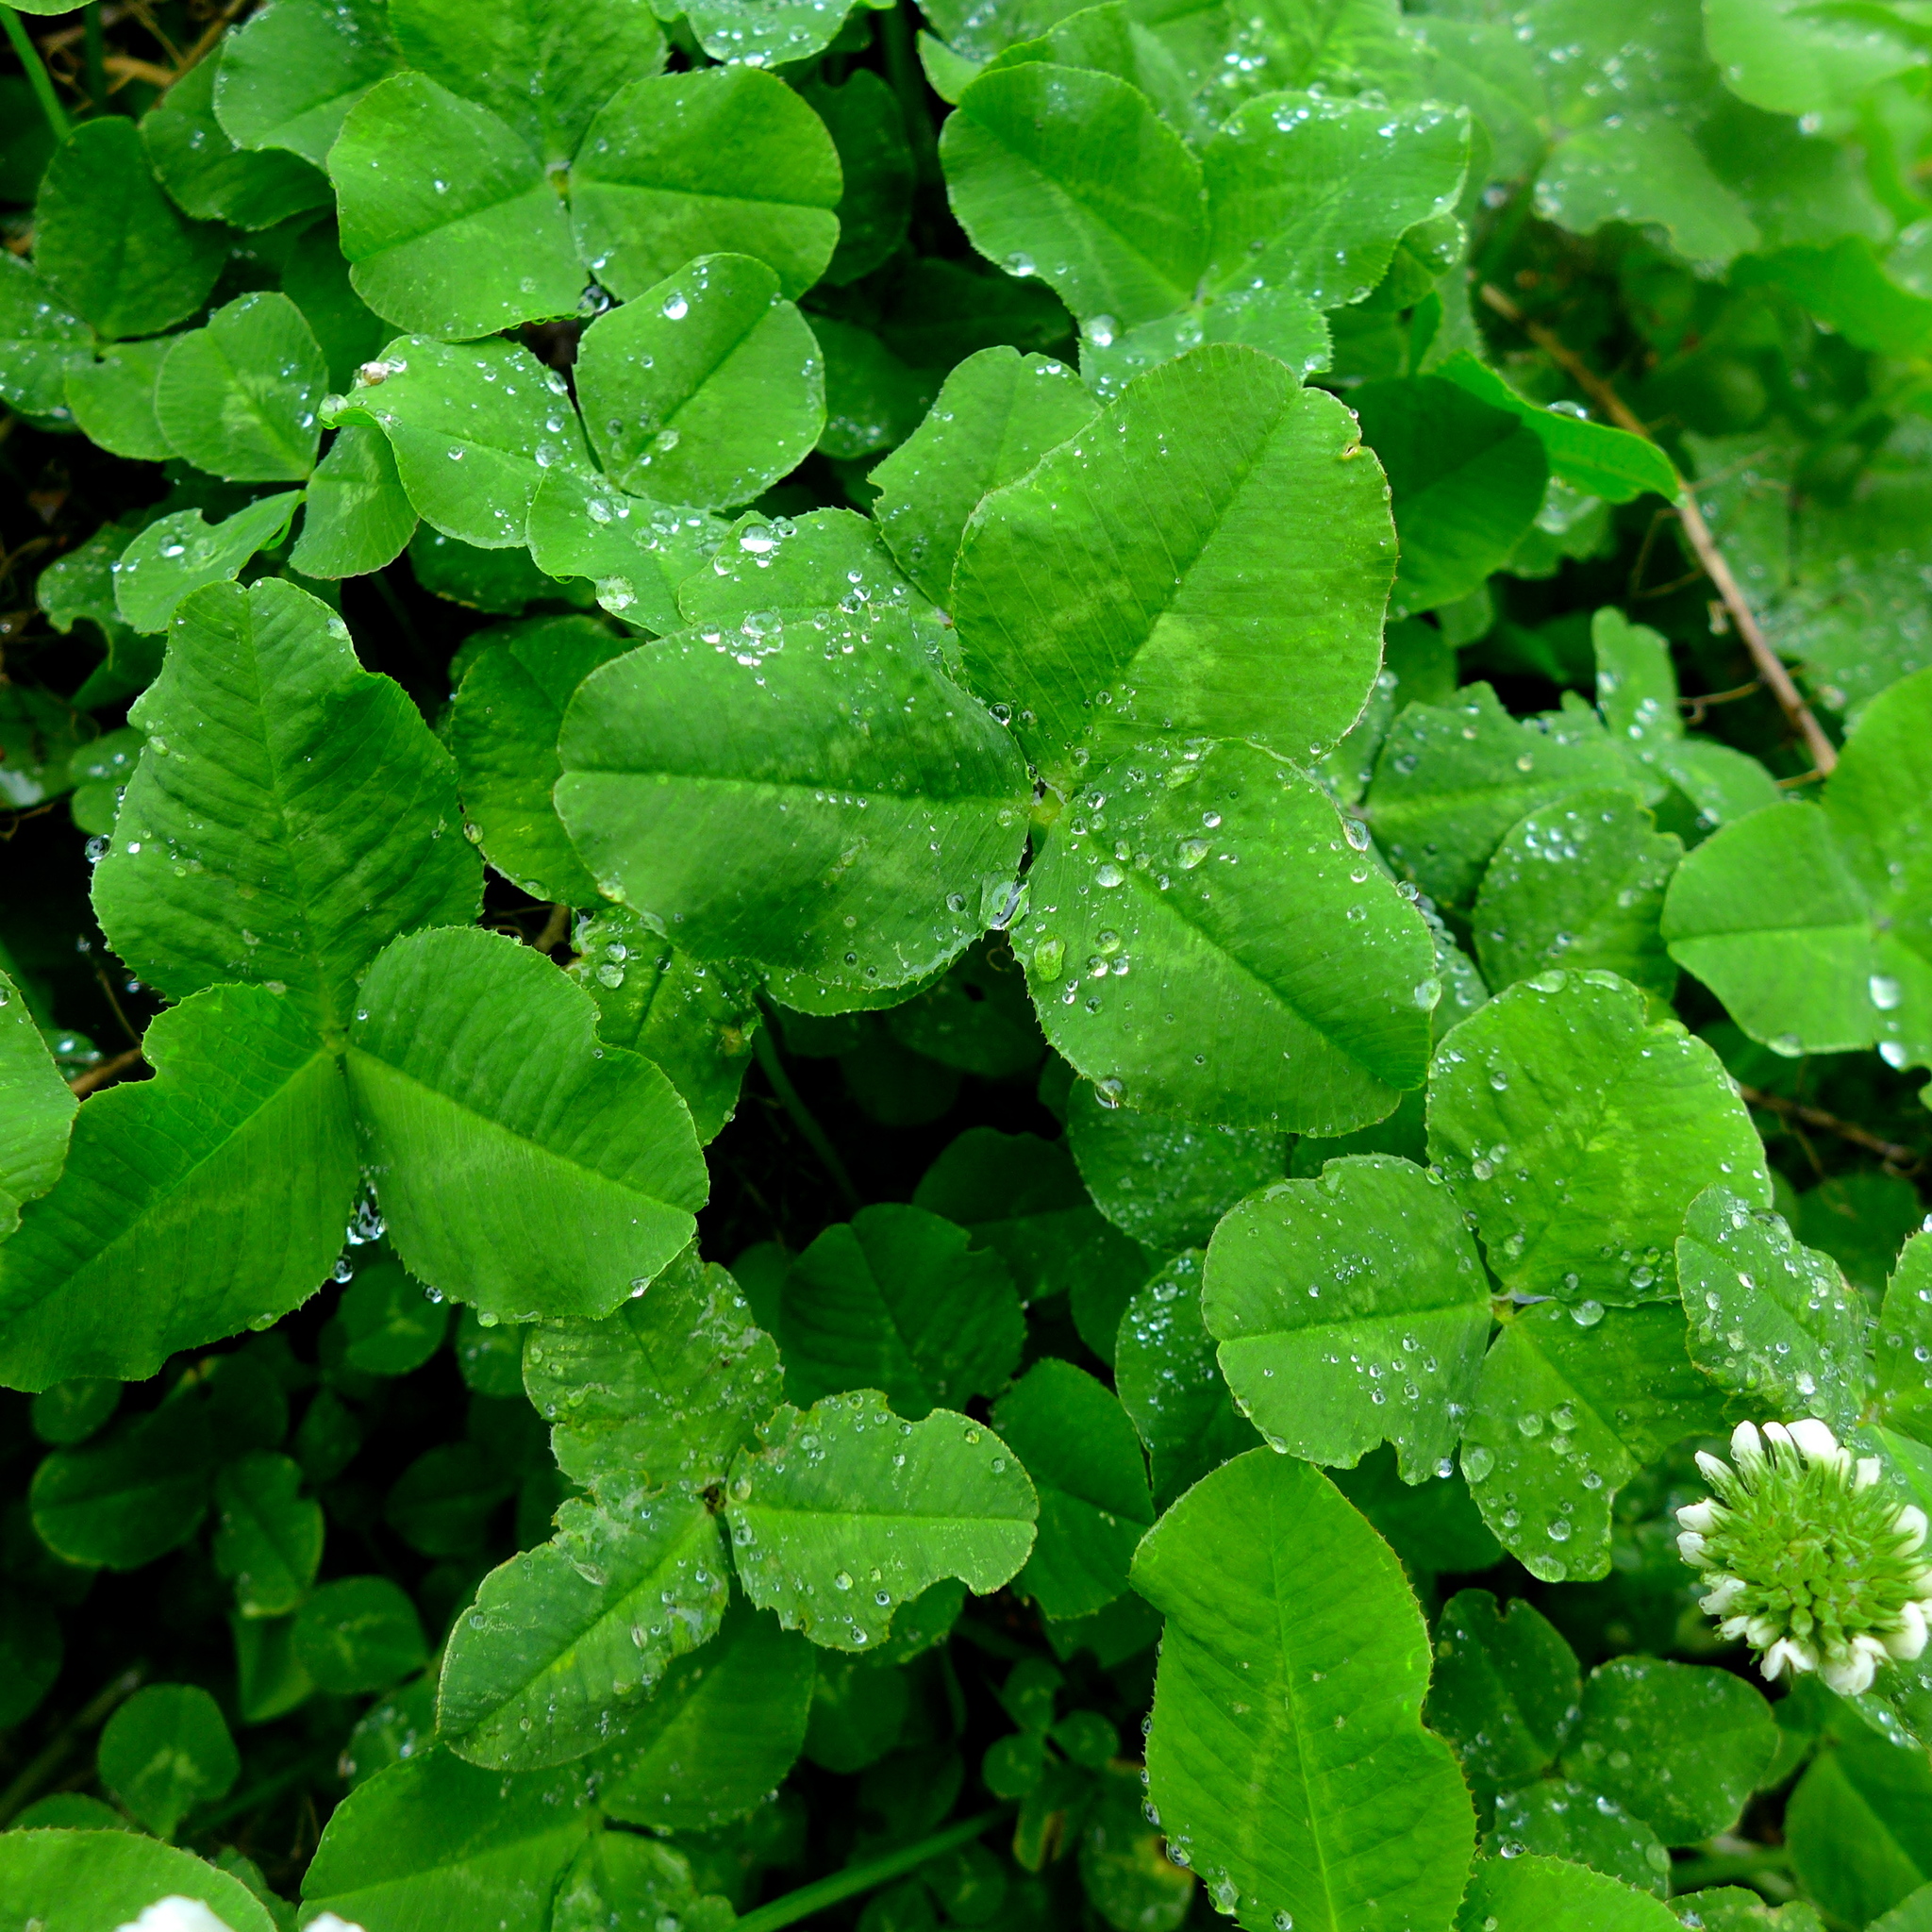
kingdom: Plantae
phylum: Tracheophyta
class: Magnoliopsida
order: Fabales
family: Fabaceae
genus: Trifolium
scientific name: Trifolium repens
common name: White clover
